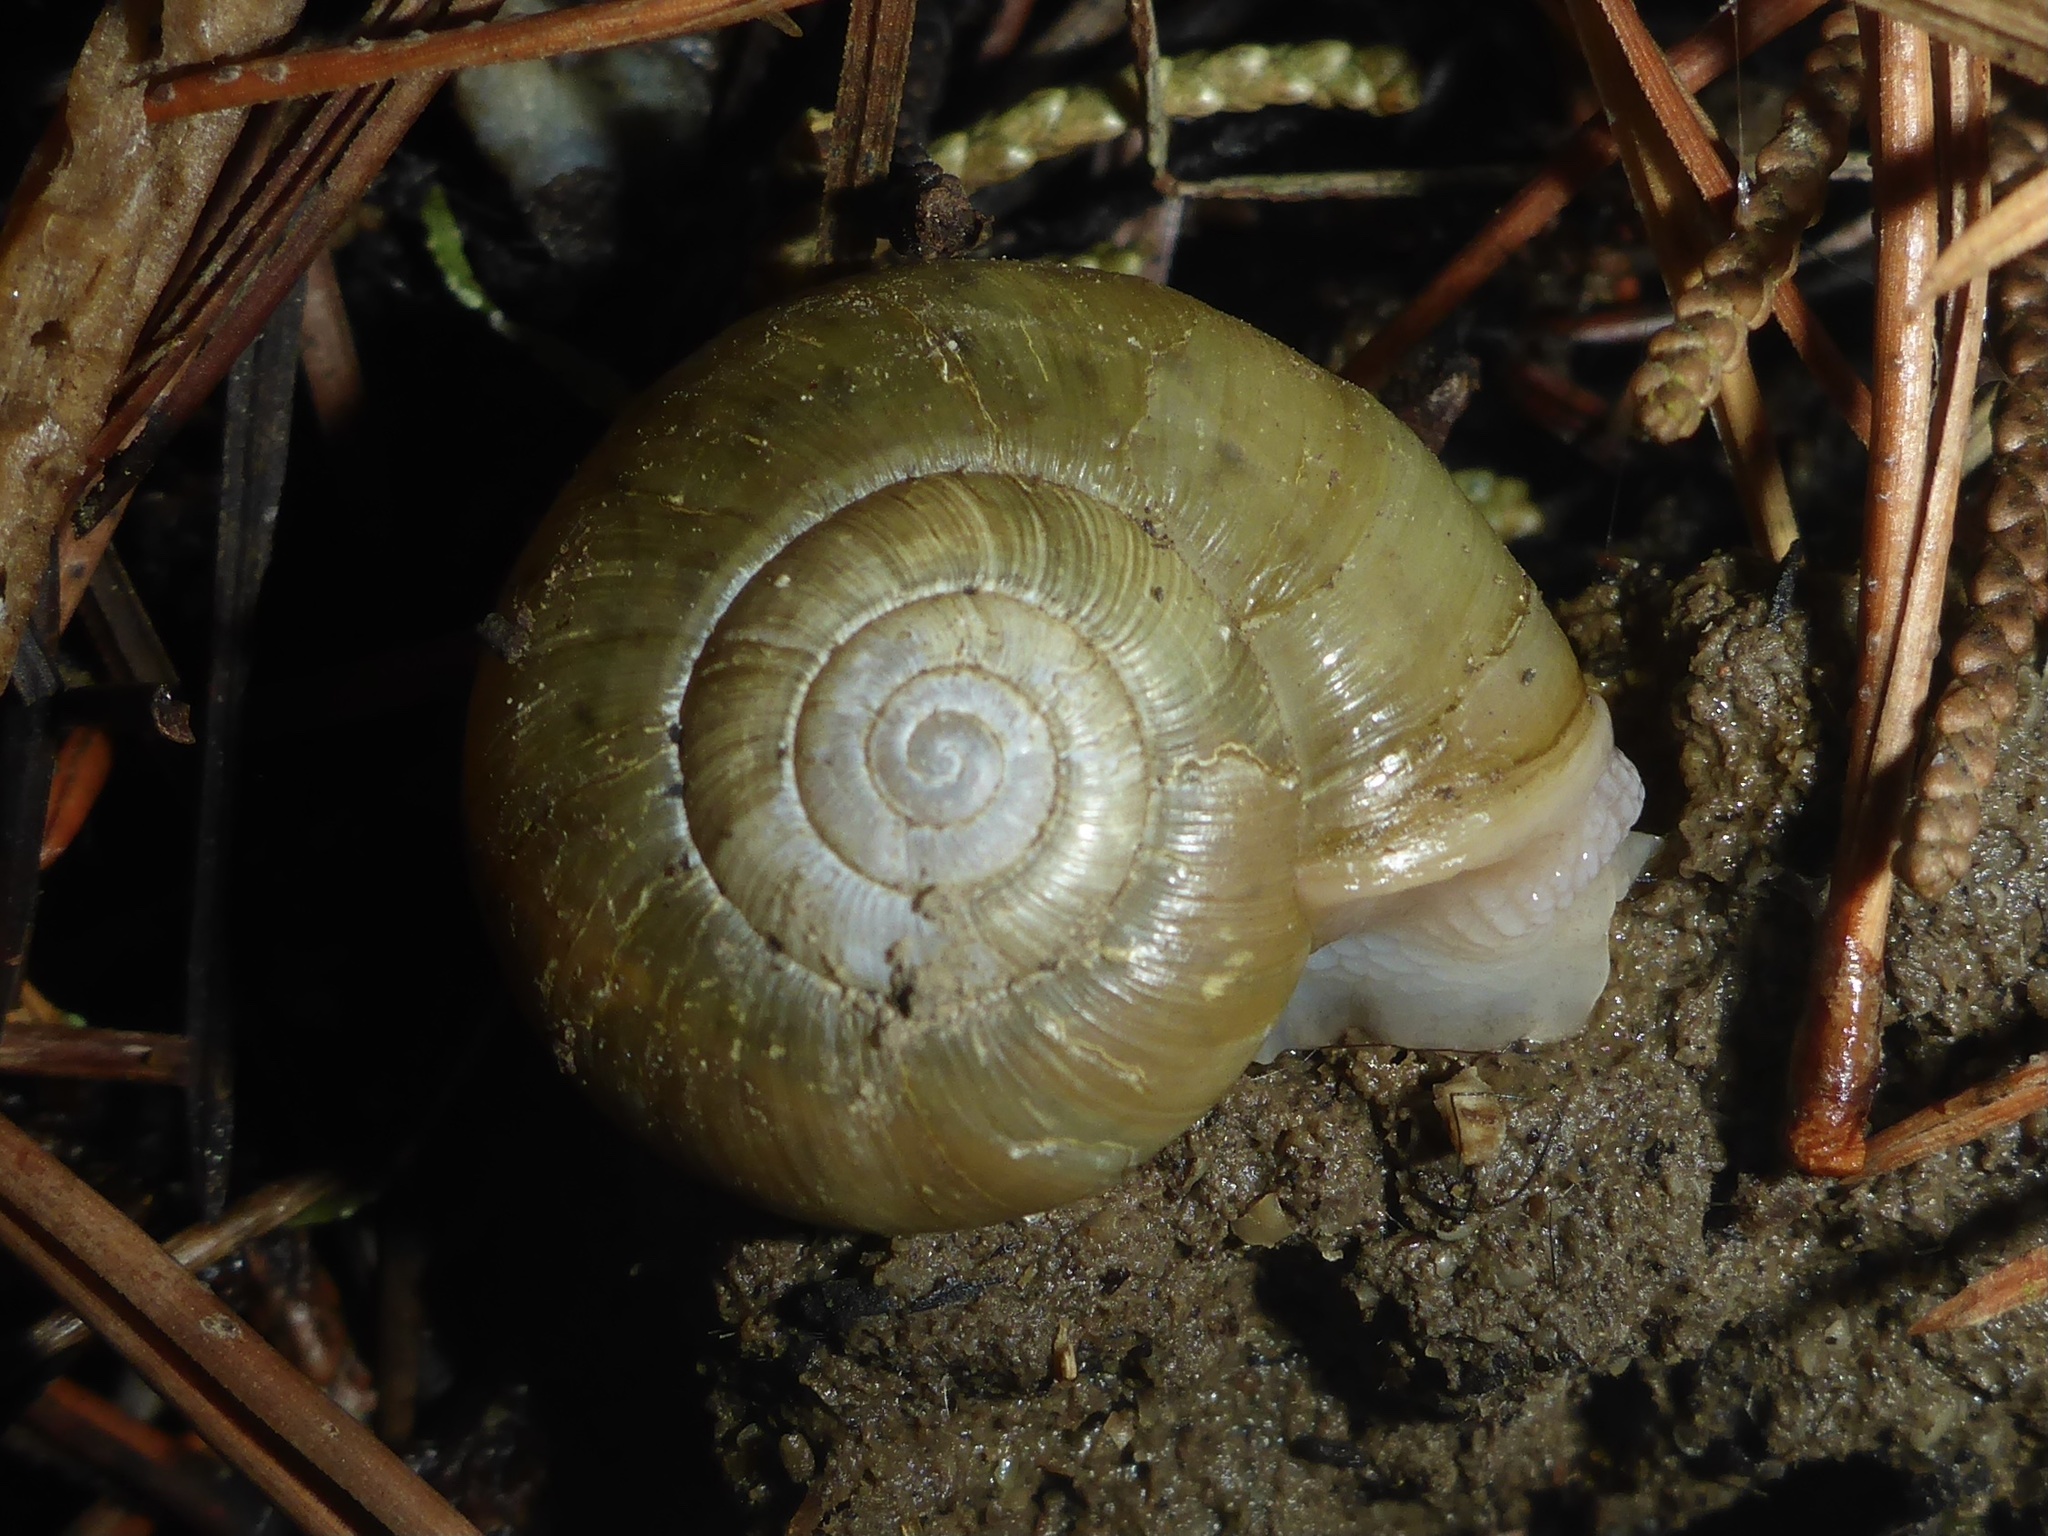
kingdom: Animalia
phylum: Mollusca
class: Gastropoda
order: Stylommatophora
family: Haplotrematidae
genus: Haplotrema
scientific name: Haplotrema minimum
